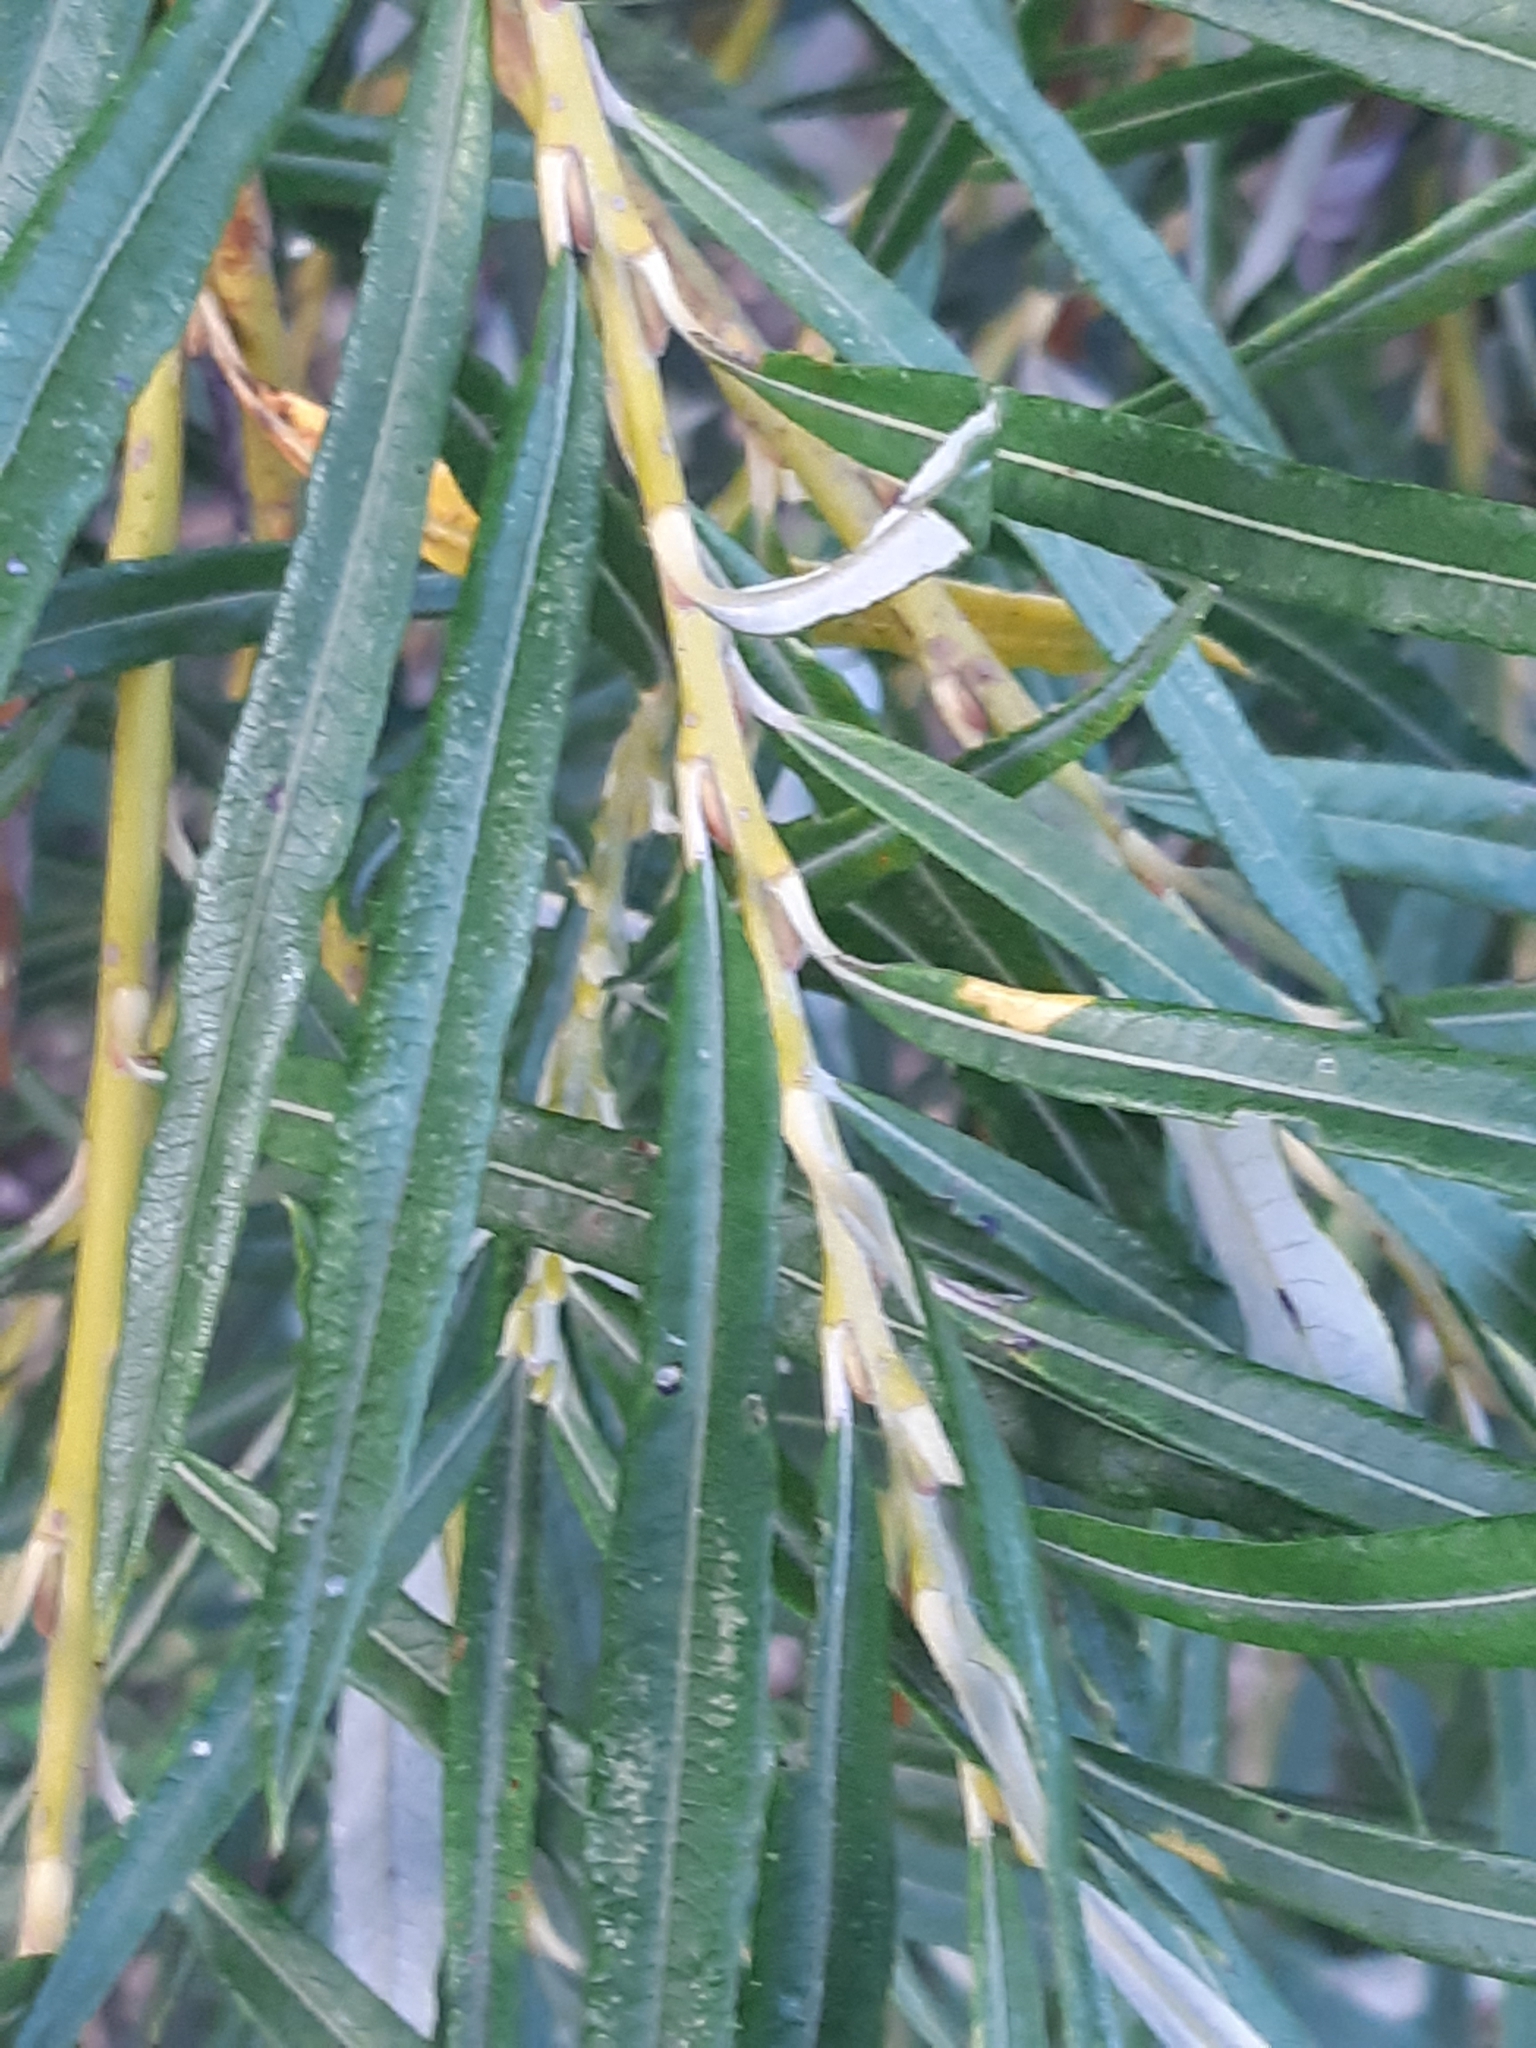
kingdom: Plantae
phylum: Tracheophyta
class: Magnoliopsida
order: Malpighiales
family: Salicaceae
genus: Salix
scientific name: Salix eleagnos
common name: Elaeagnus willow
